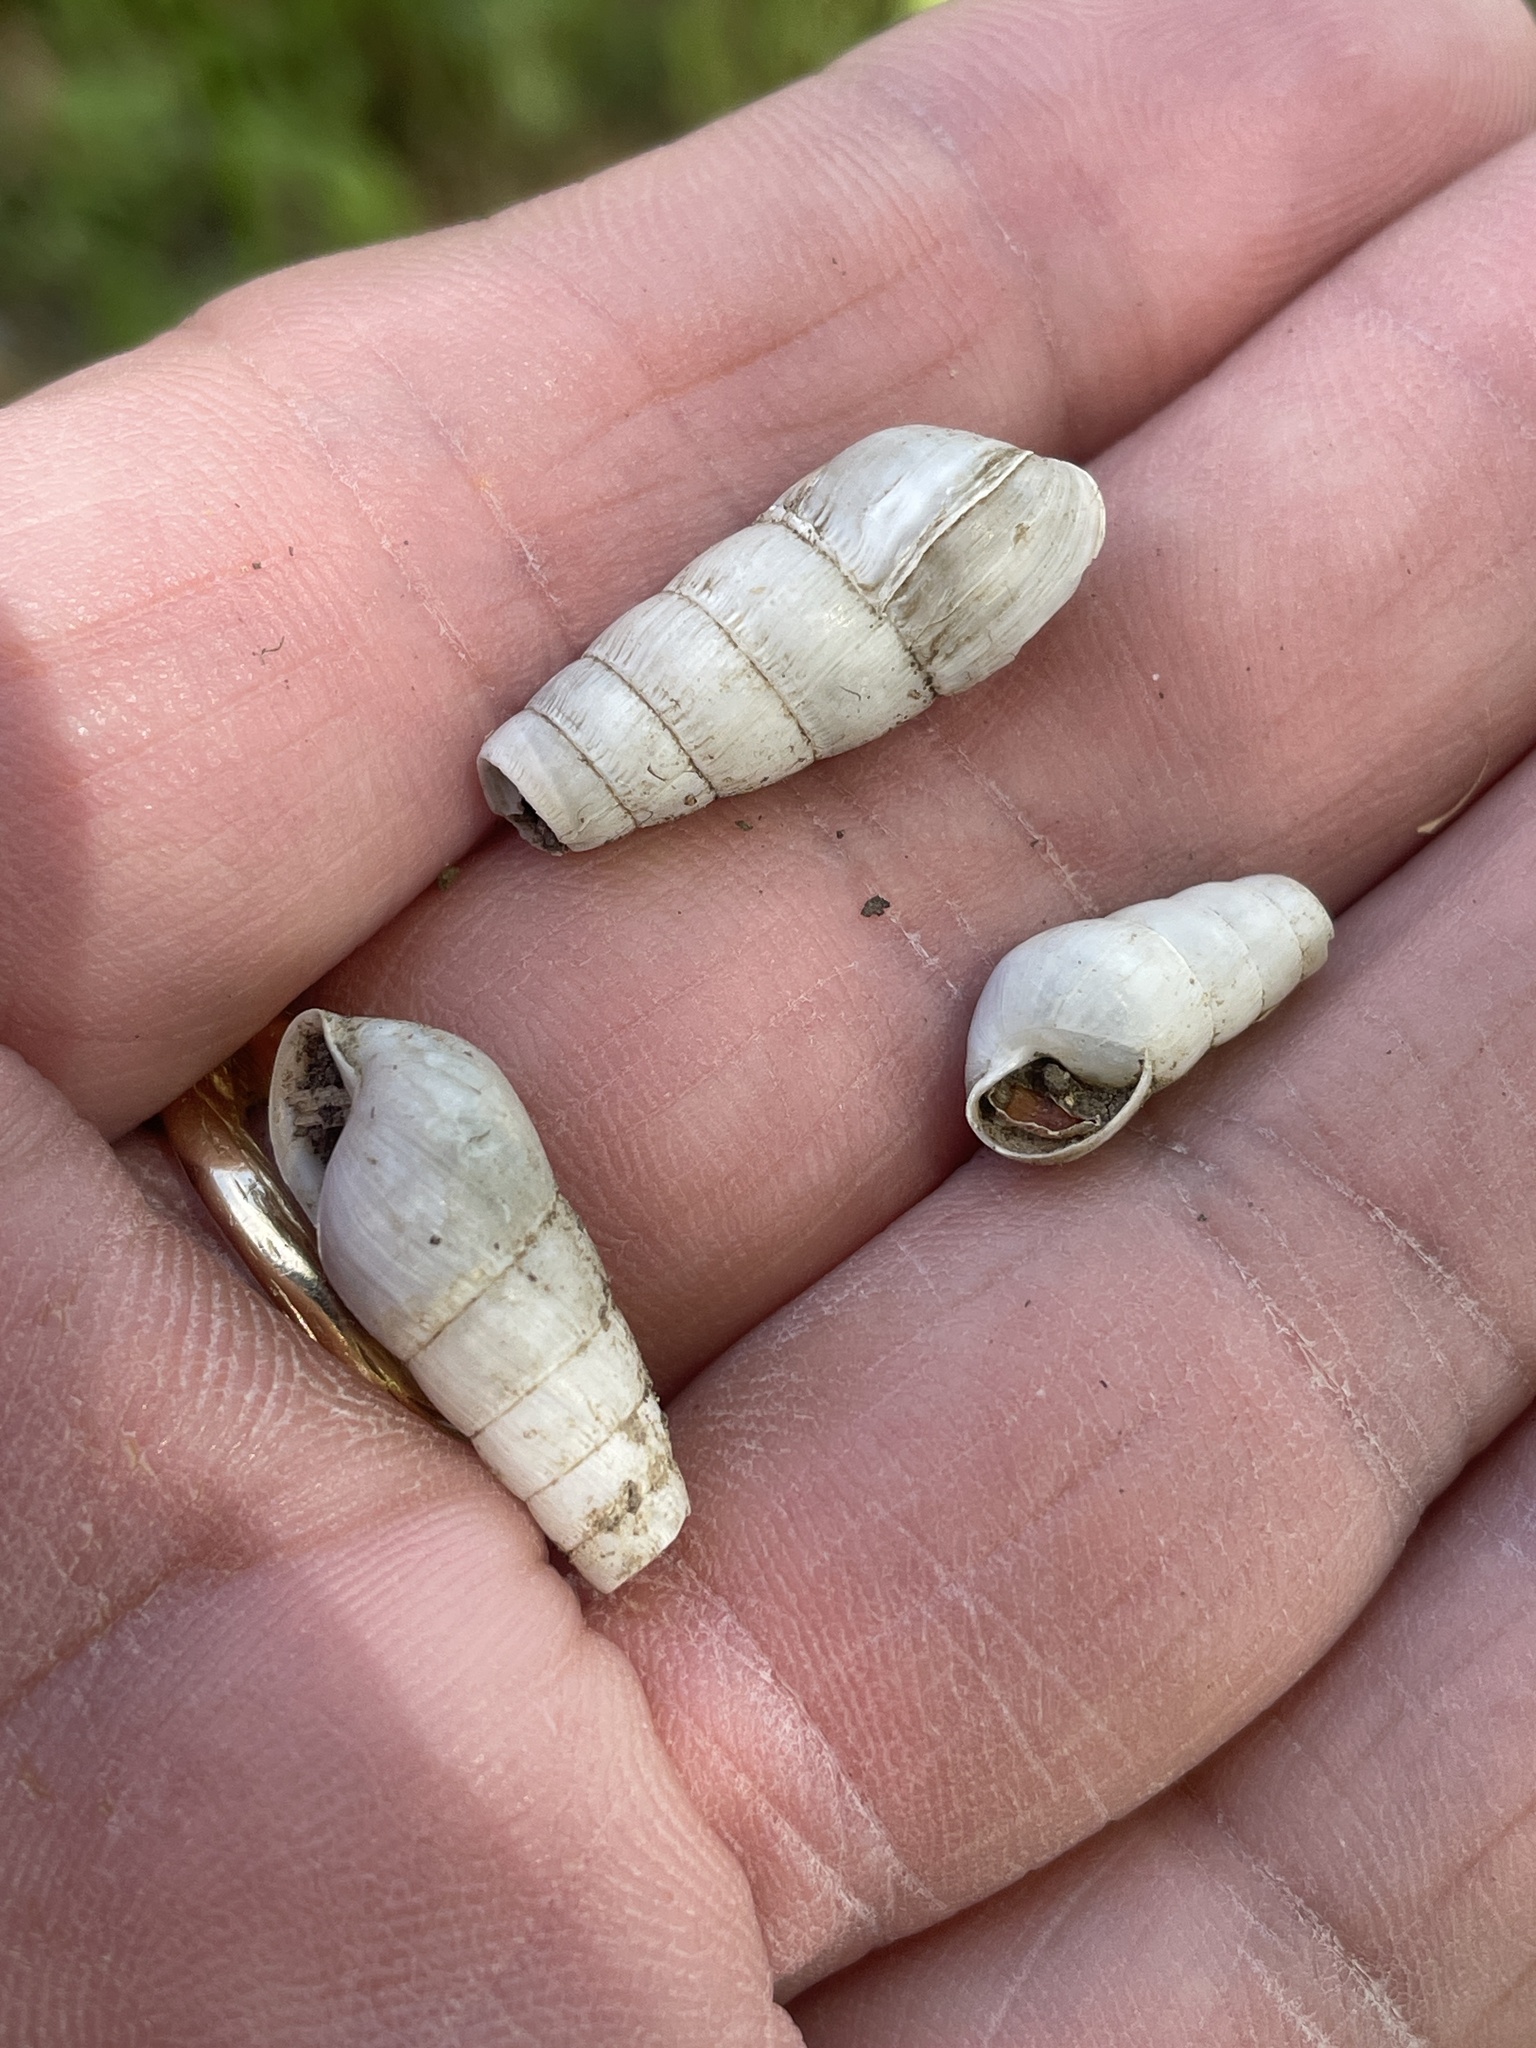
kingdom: Animalia
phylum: Mollusca
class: Gastropoda
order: Stylommatophora
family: Achatinidae
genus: Rumina
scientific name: Rumina decollata
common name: Decollate snail
